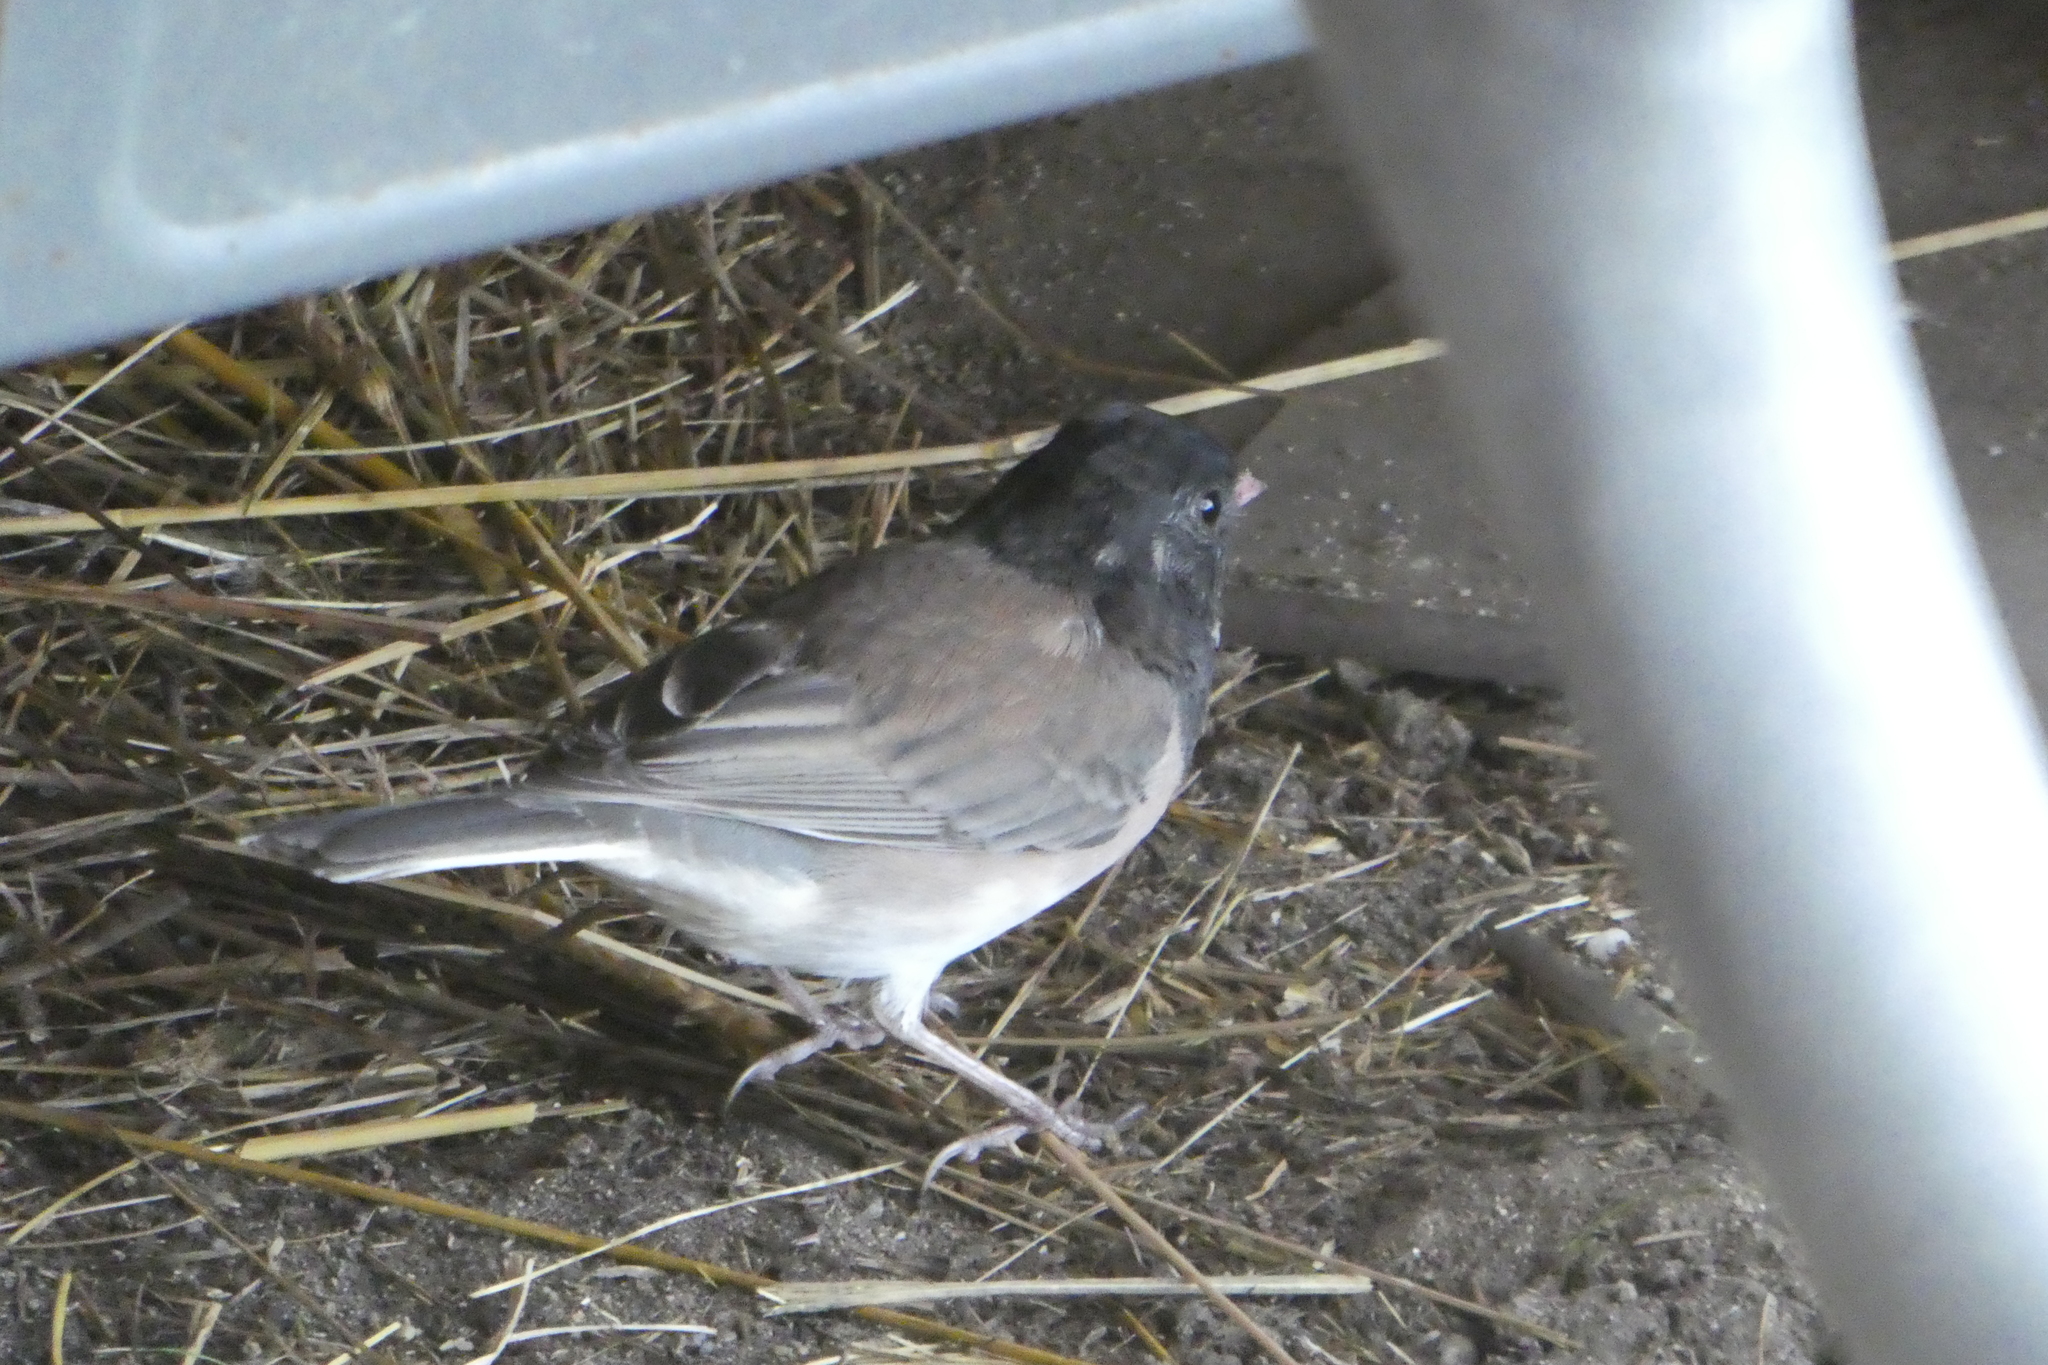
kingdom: Animalia
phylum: Chordata
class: Aves
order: Passeriformes
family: Passerellidae
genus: Junco
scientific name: Junco hyemalis
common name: Dark-eyed junco
